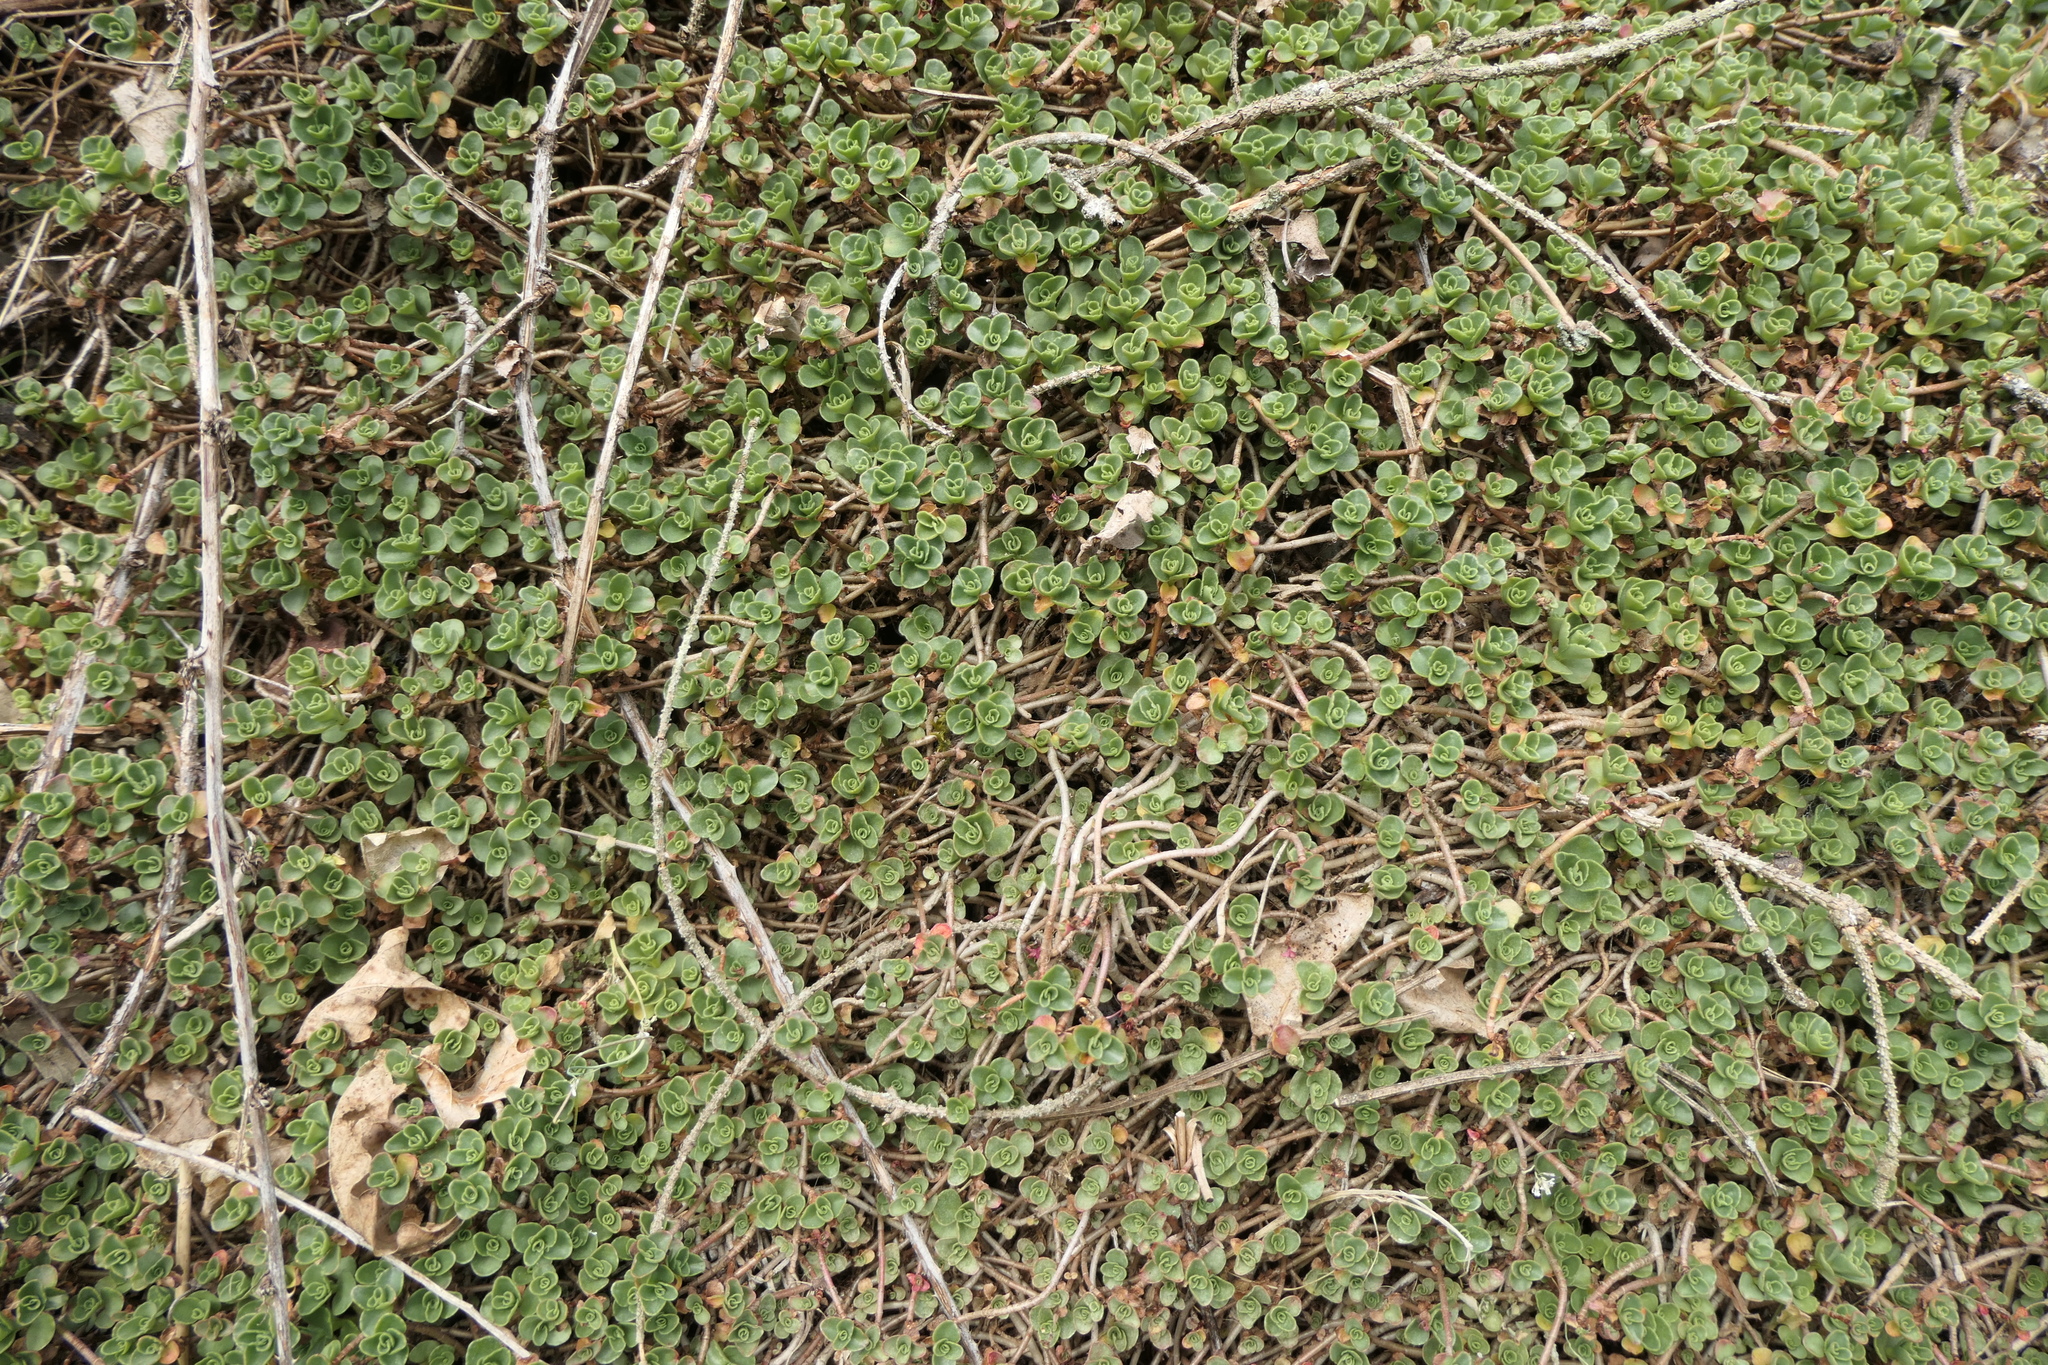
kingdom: Plantae
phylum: Tracheophyta
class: Magnoliopsida
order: Saxifragales
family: Crassulaceae
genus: Phedimus
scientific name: Phedimus spurius
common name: Caucasian stonecrop
